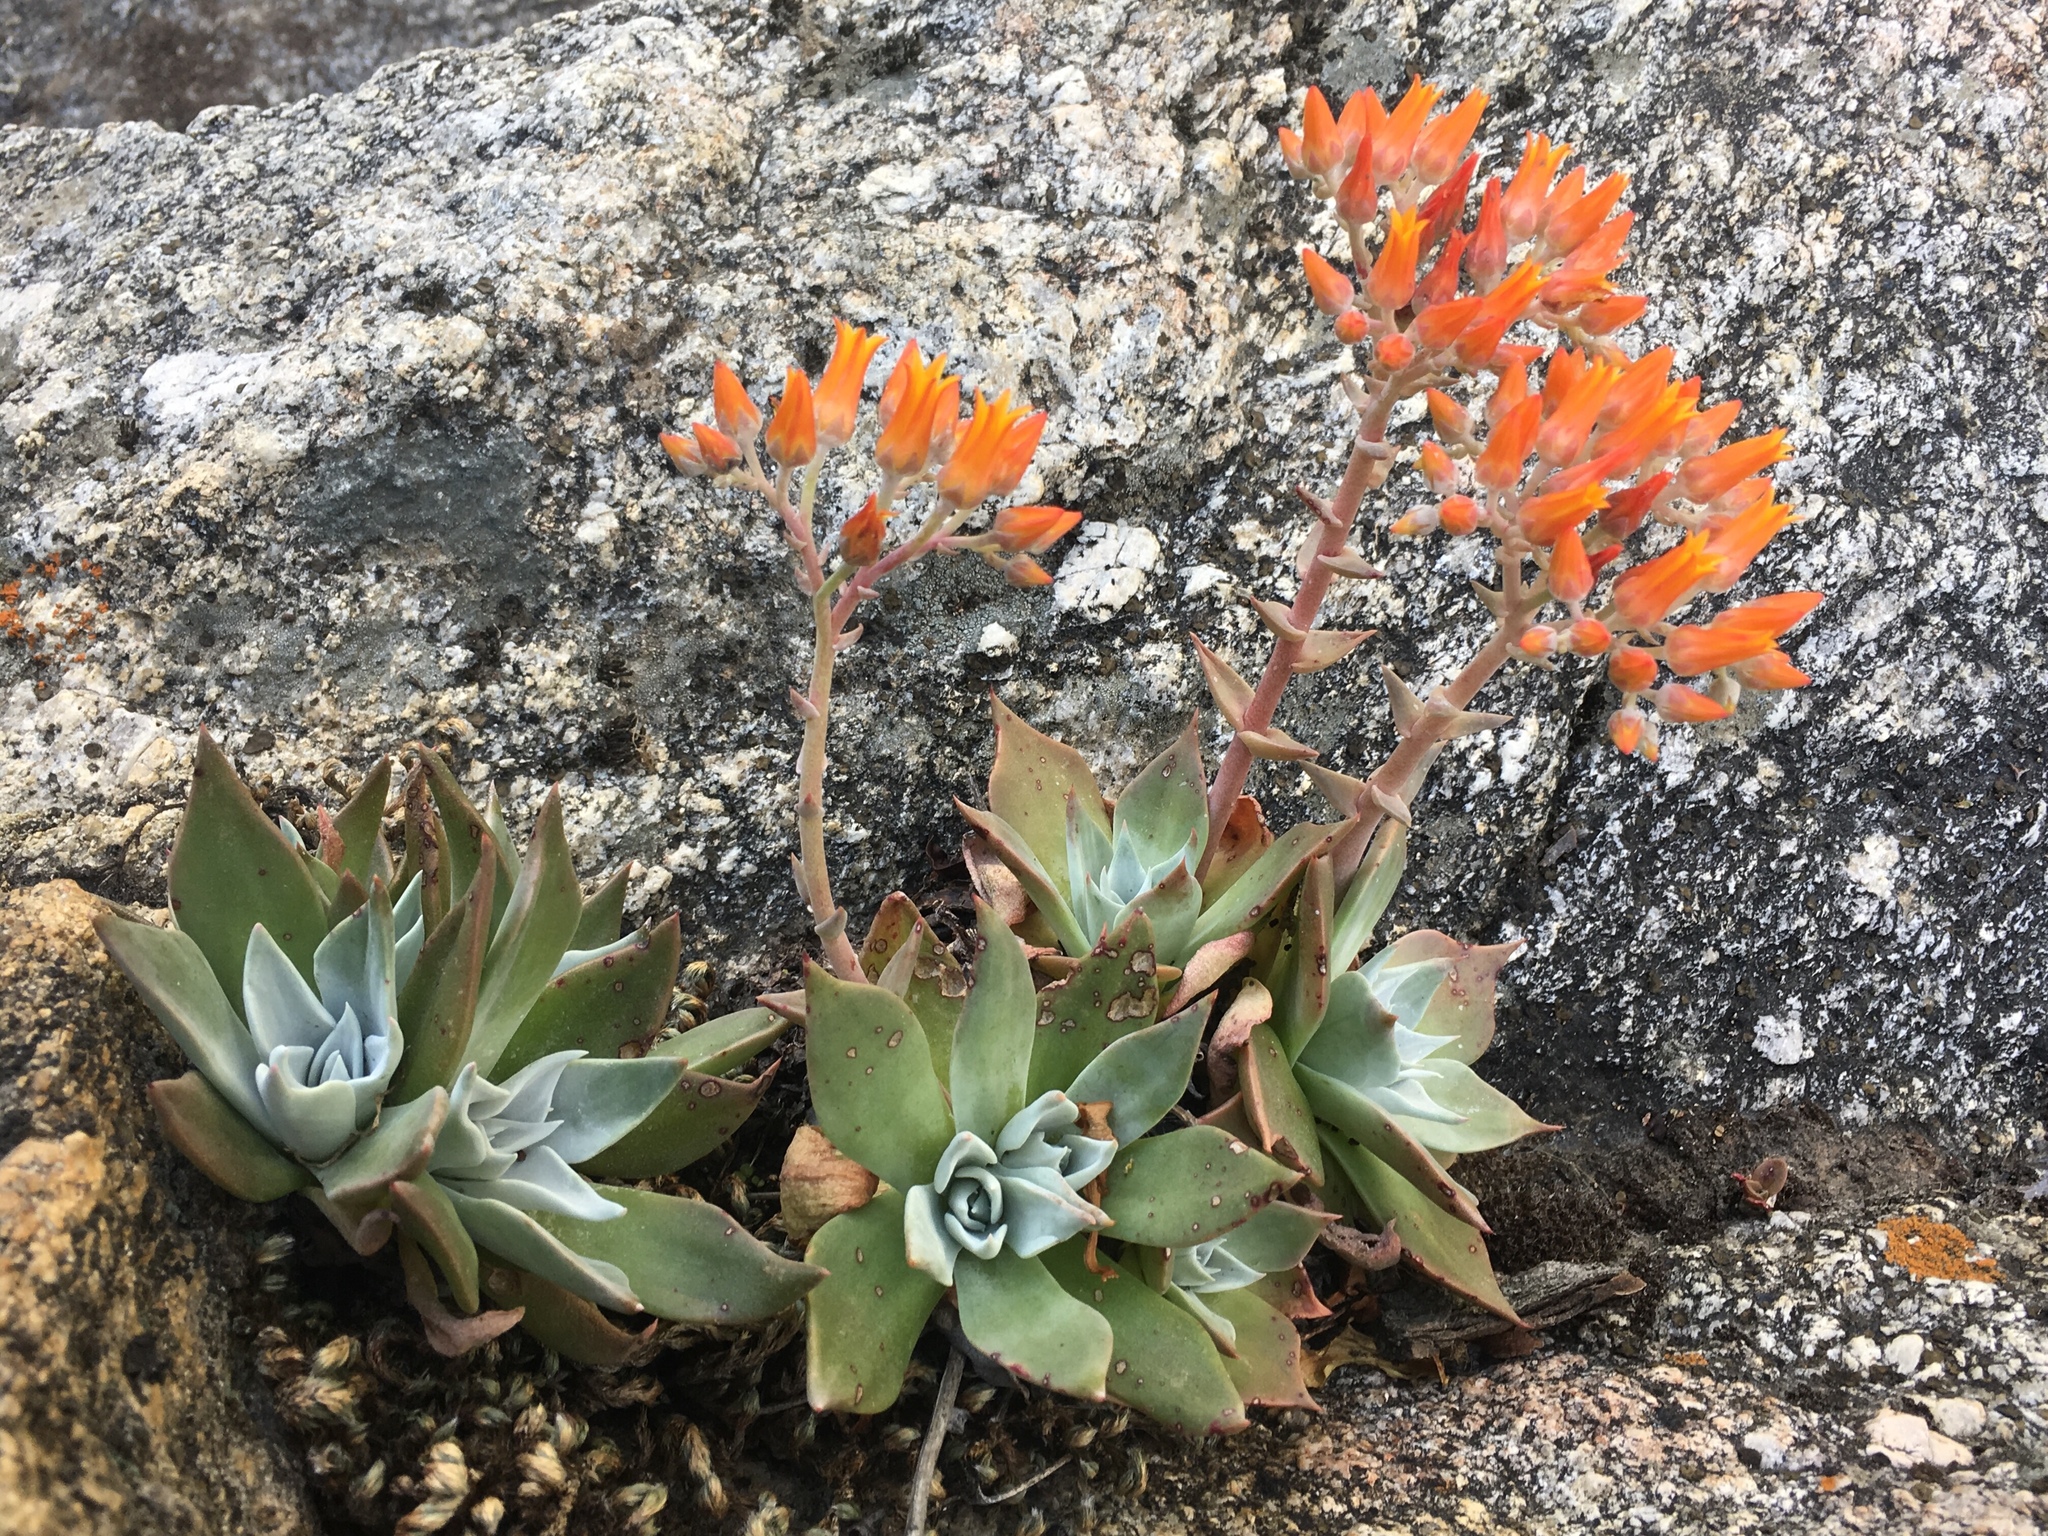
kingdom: Plantae
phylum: Tracheophyta
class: Magnoliopsida
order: Saxifragales
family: Crassulaceae
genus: Dudleya
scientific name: Dudleya cymosa
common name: Canyon dudleya
